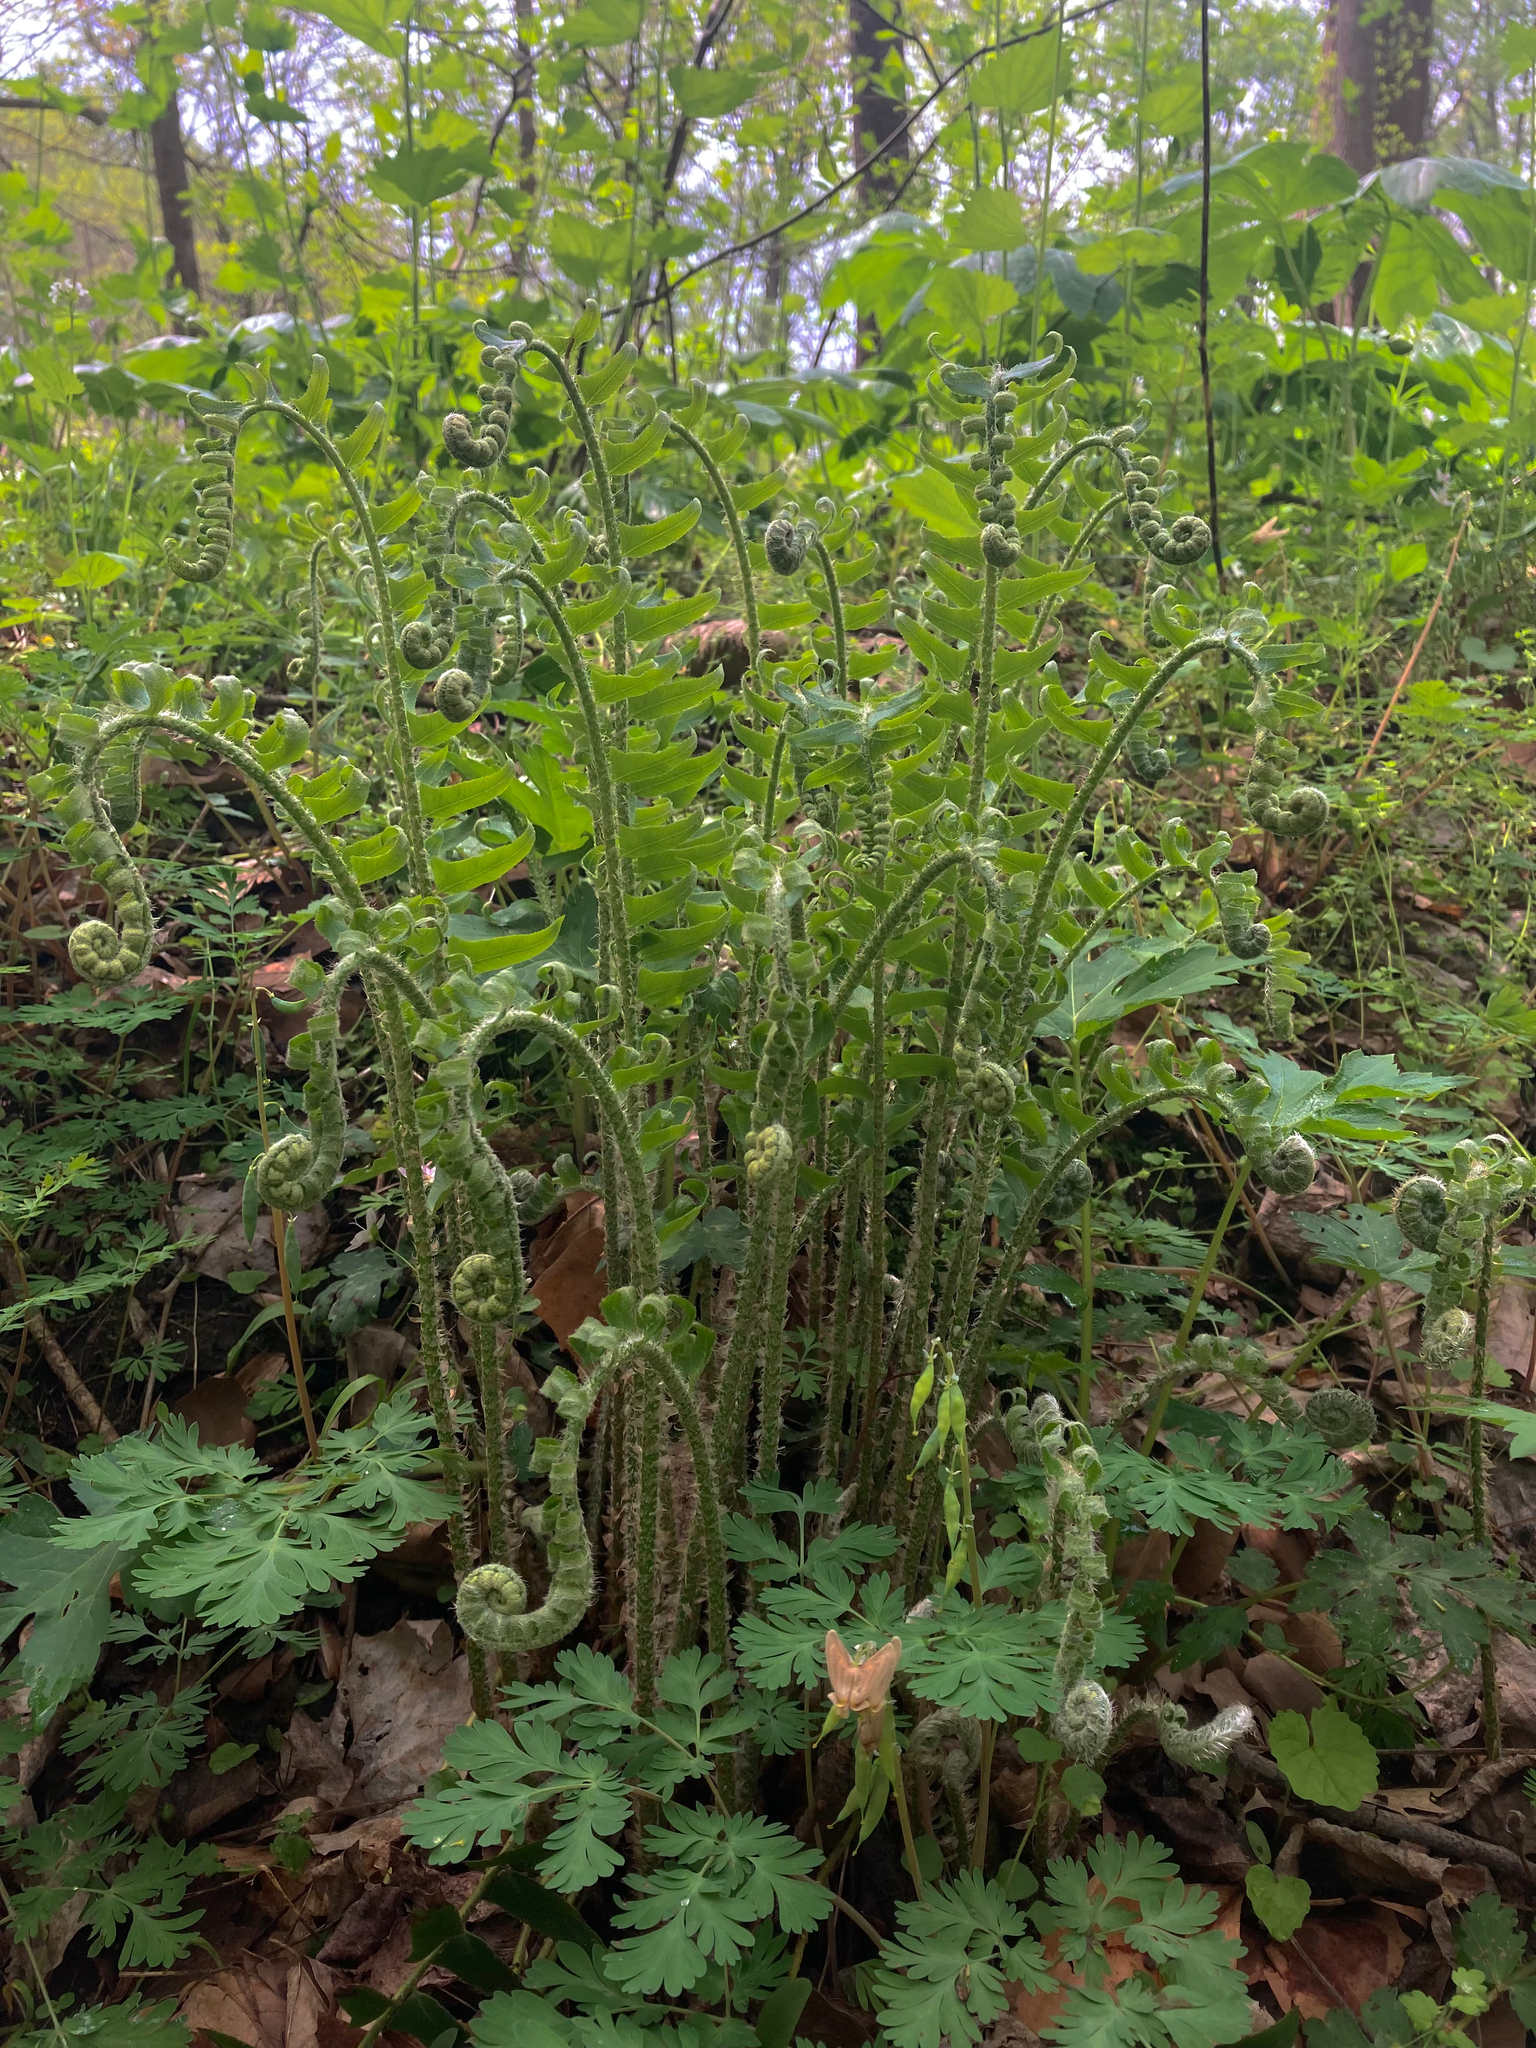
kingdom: Plantae
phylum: Tracheophyta
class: Polypodiopsida
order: Polypodiales
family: Dryopteridaceae
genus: Polystichum
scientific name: Polystichum acrostichoides
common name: Christmas fern
